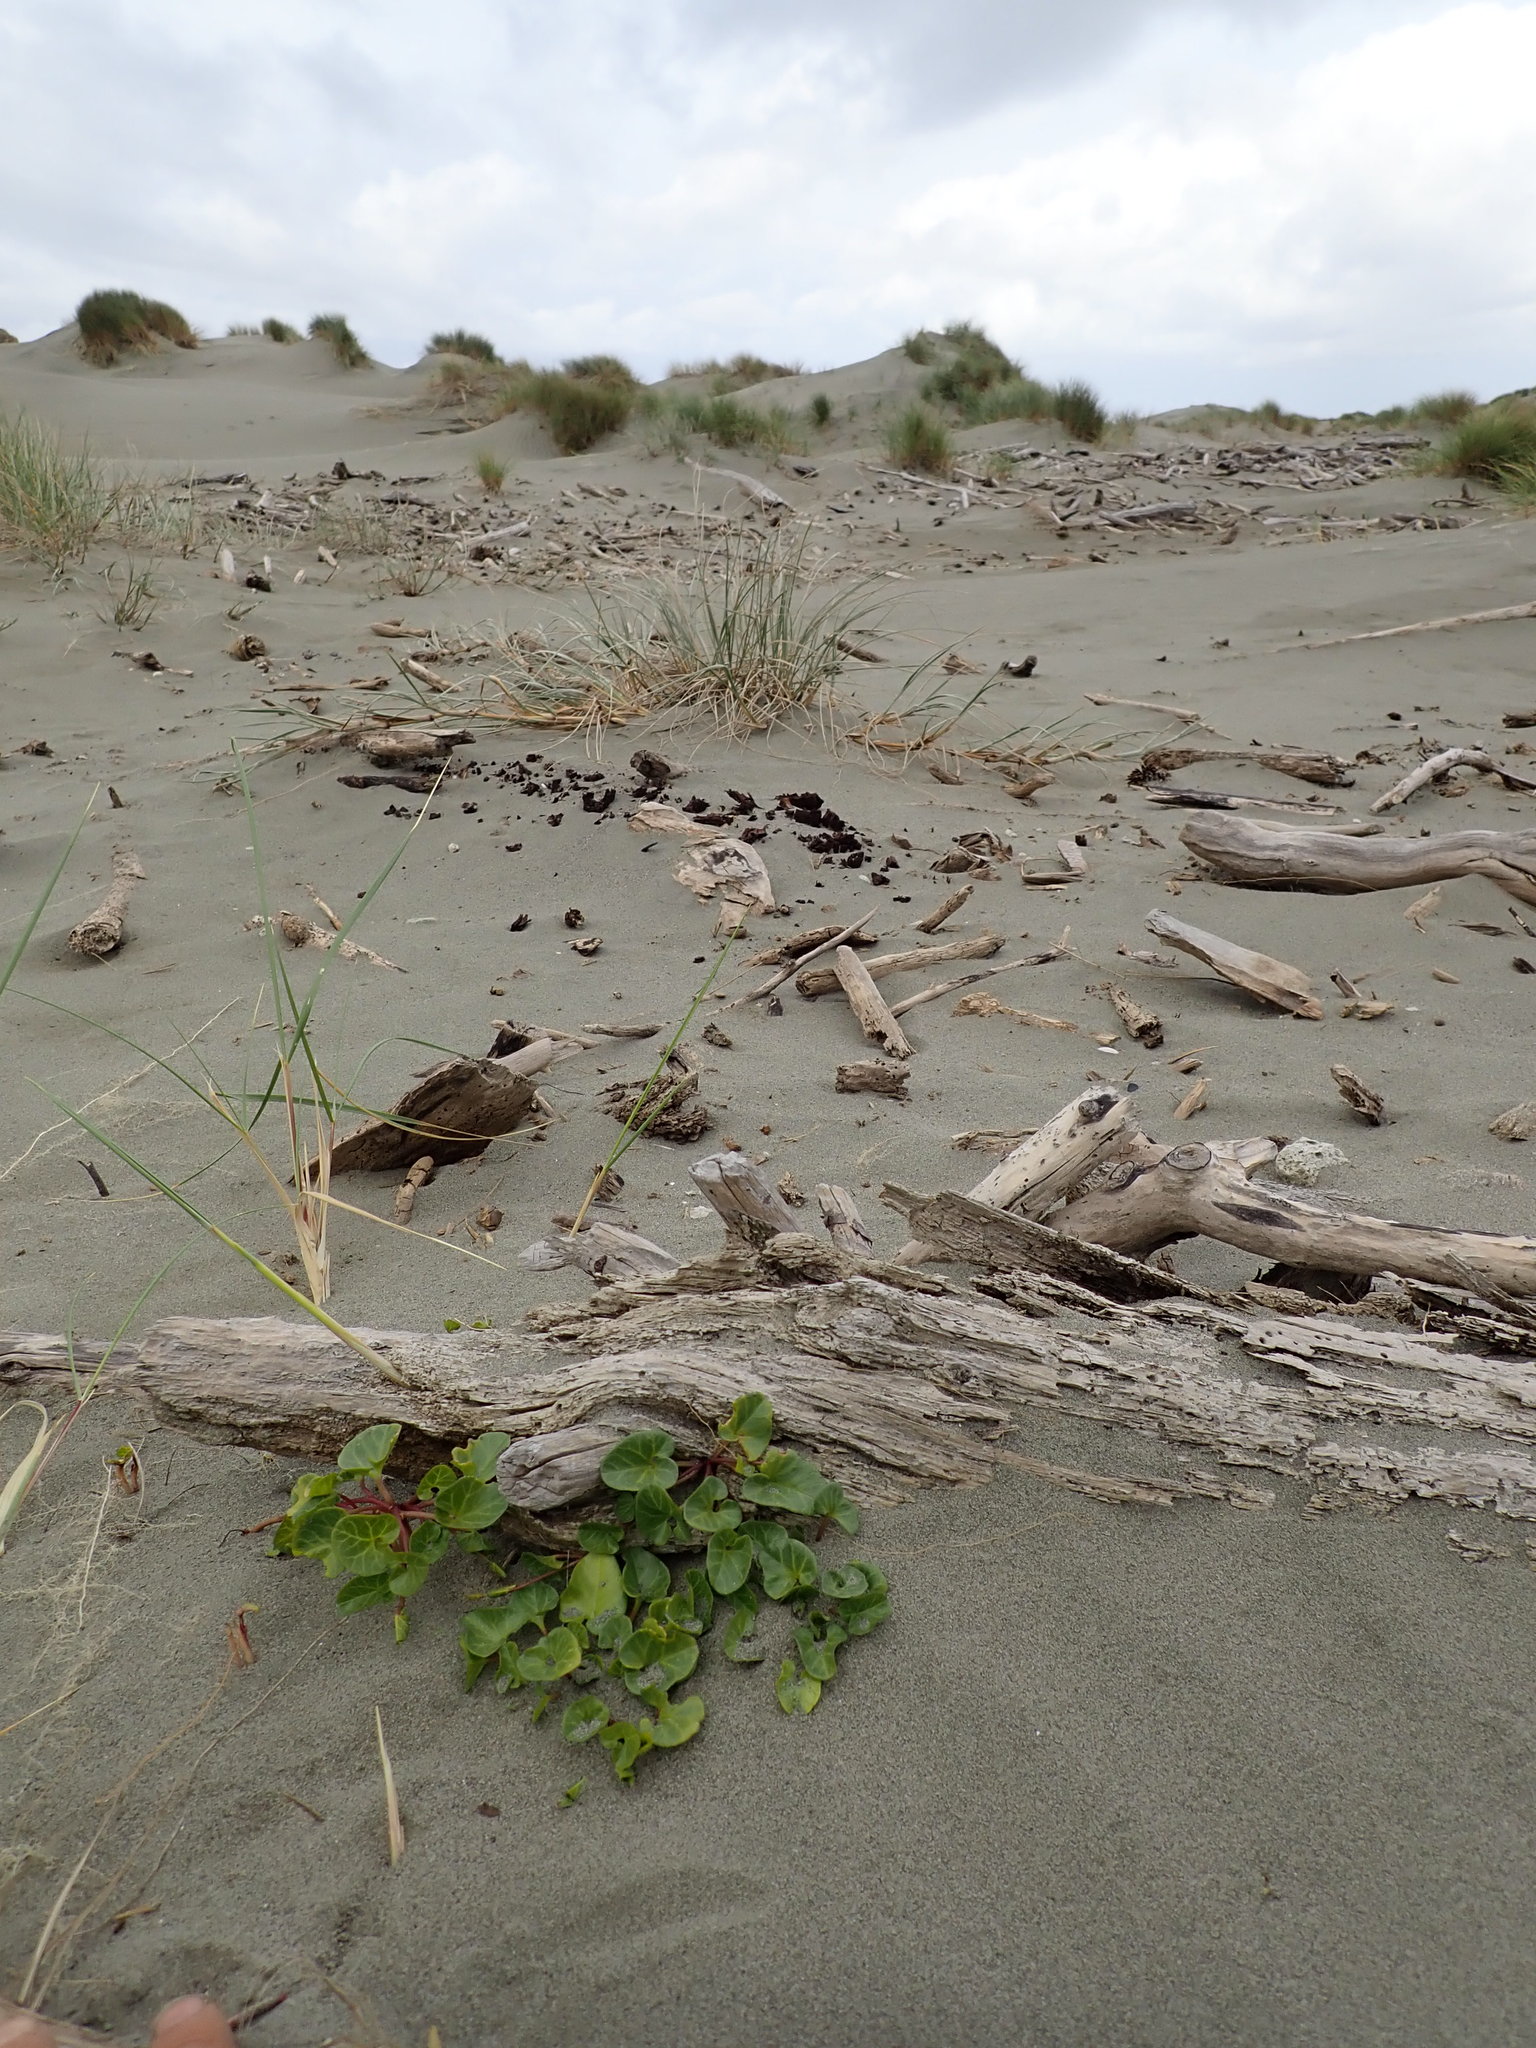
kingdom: Plantae
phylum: Tracheophyta
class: Magnoliopsida
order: Solanales
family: Convolvulaceae
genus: Calystegia
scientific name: Calystegia soldanella
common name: Sea bindweed
